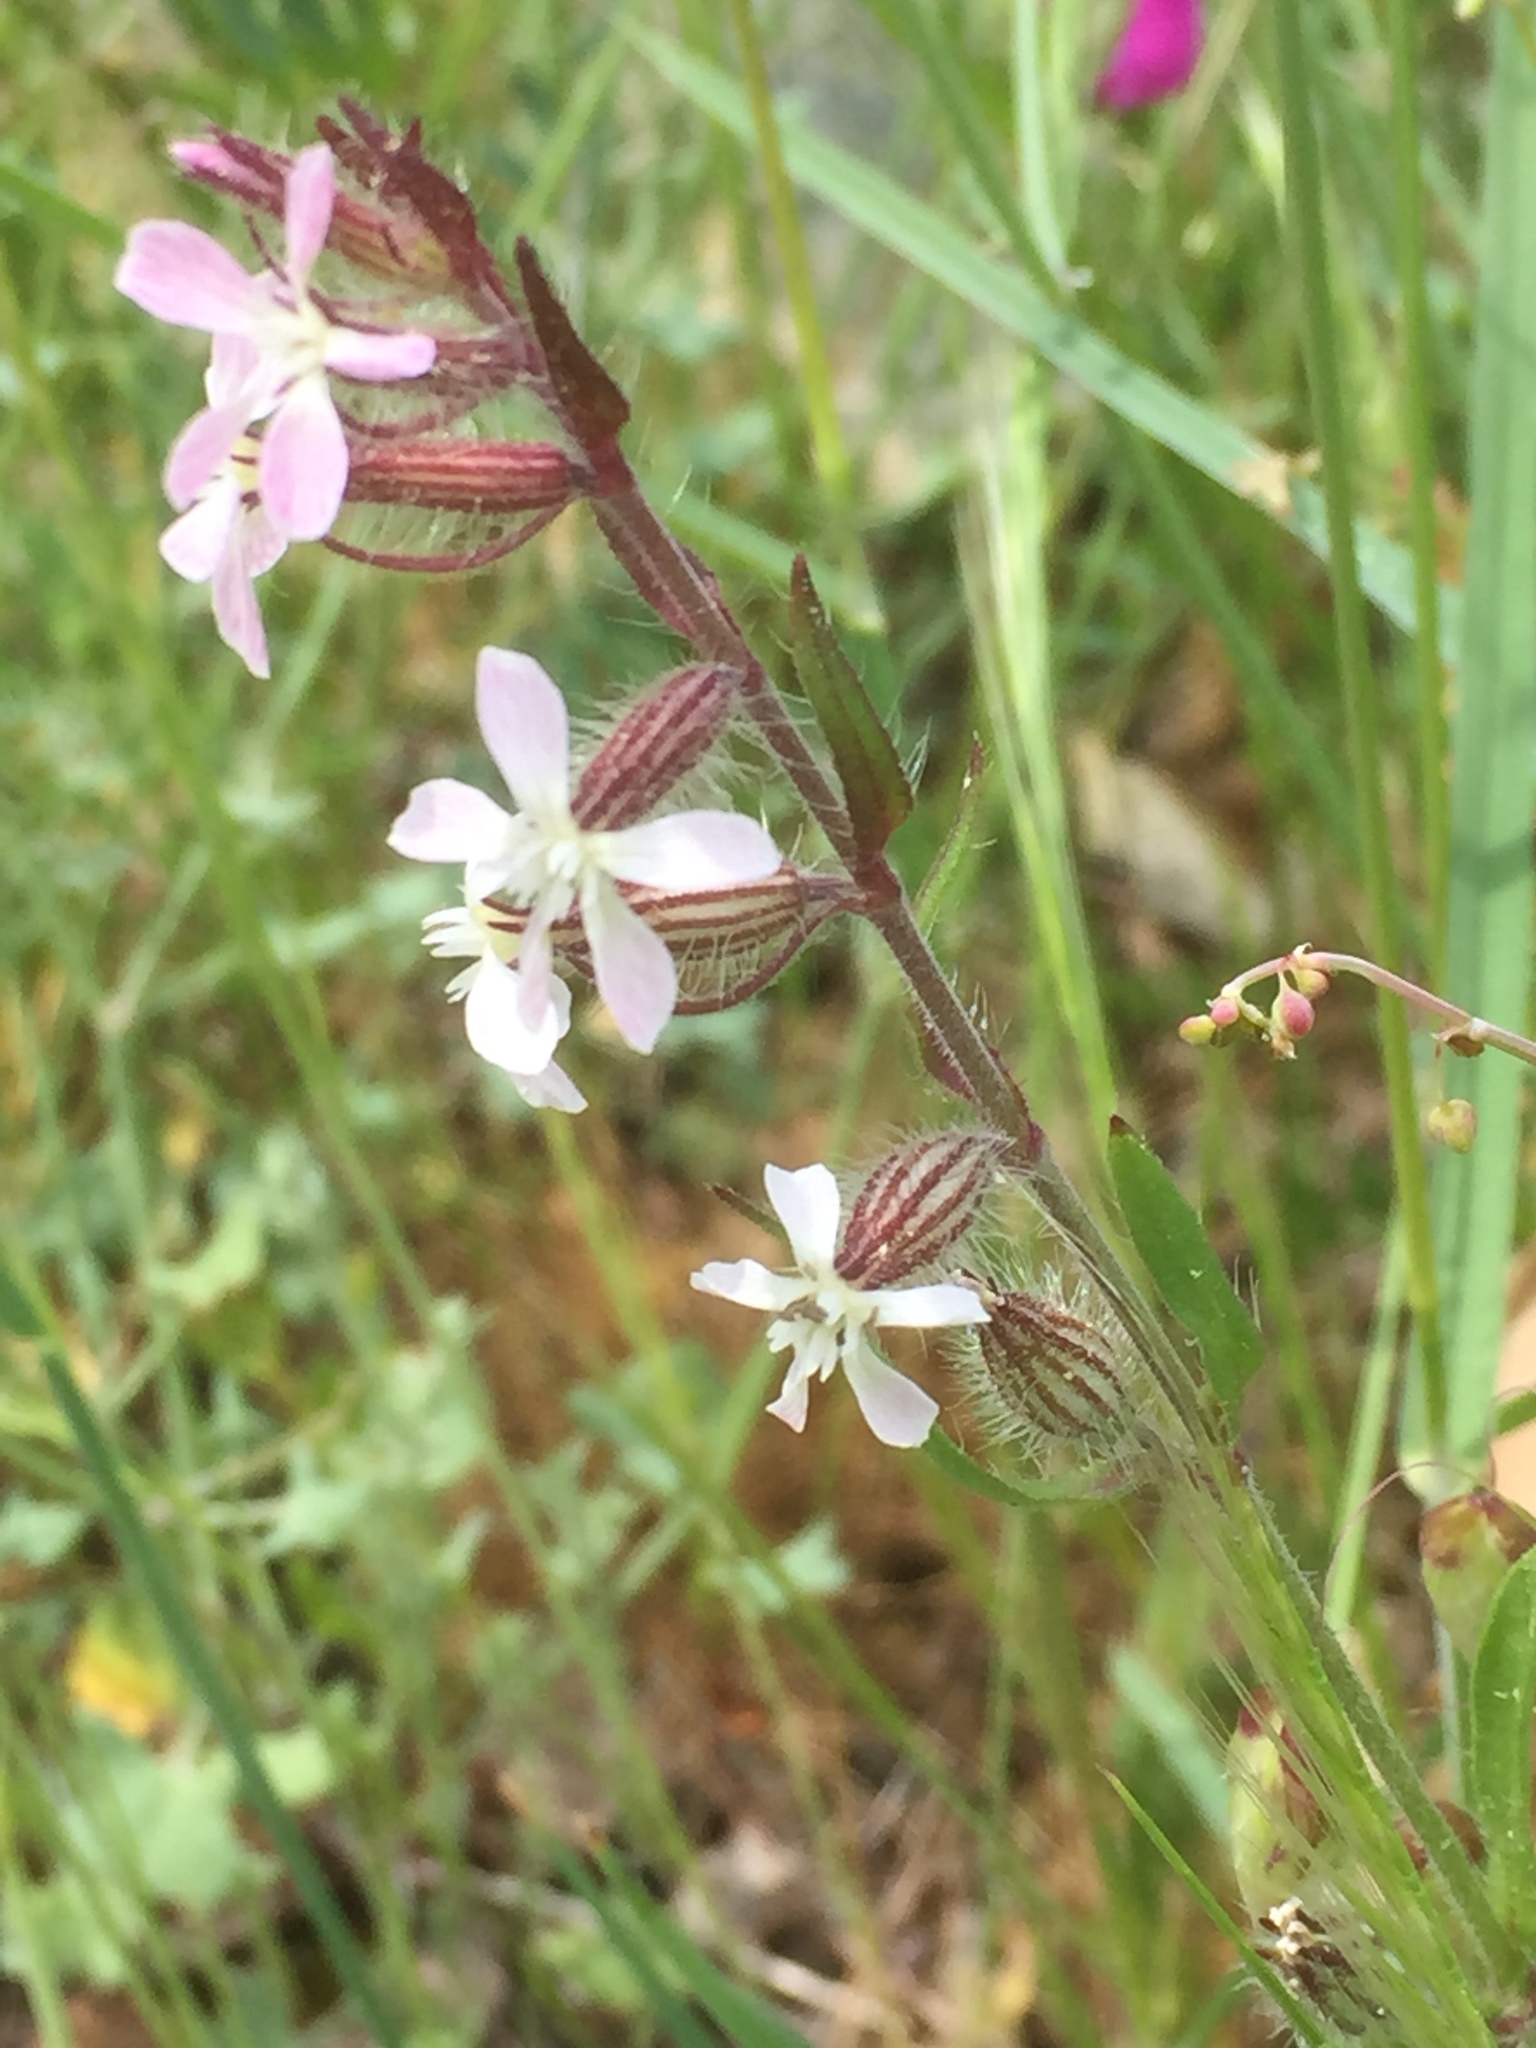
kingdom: Plantae
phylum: Tracheophyta
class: Magnoliopsida
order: Caryophyllales
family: Caryophyllaceae
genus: Silene
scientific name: Silene gallica
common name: Small-flowered catchfly
